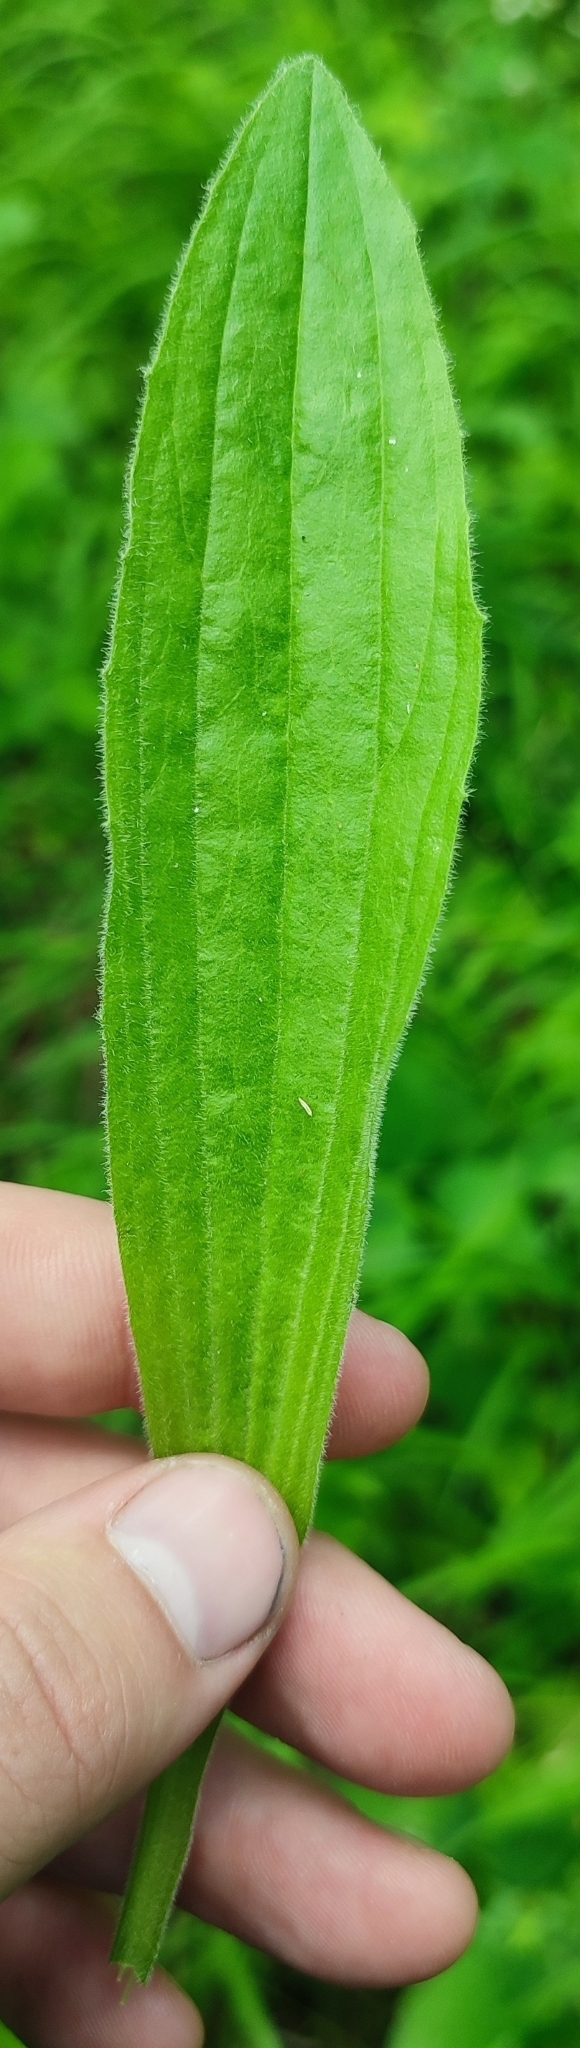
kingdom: Plantae
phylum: Tracheophyta
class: Magnoliopsida
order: Lamiales
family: Plantaginaceae
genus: Plantago
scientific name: Plantago urvillei
